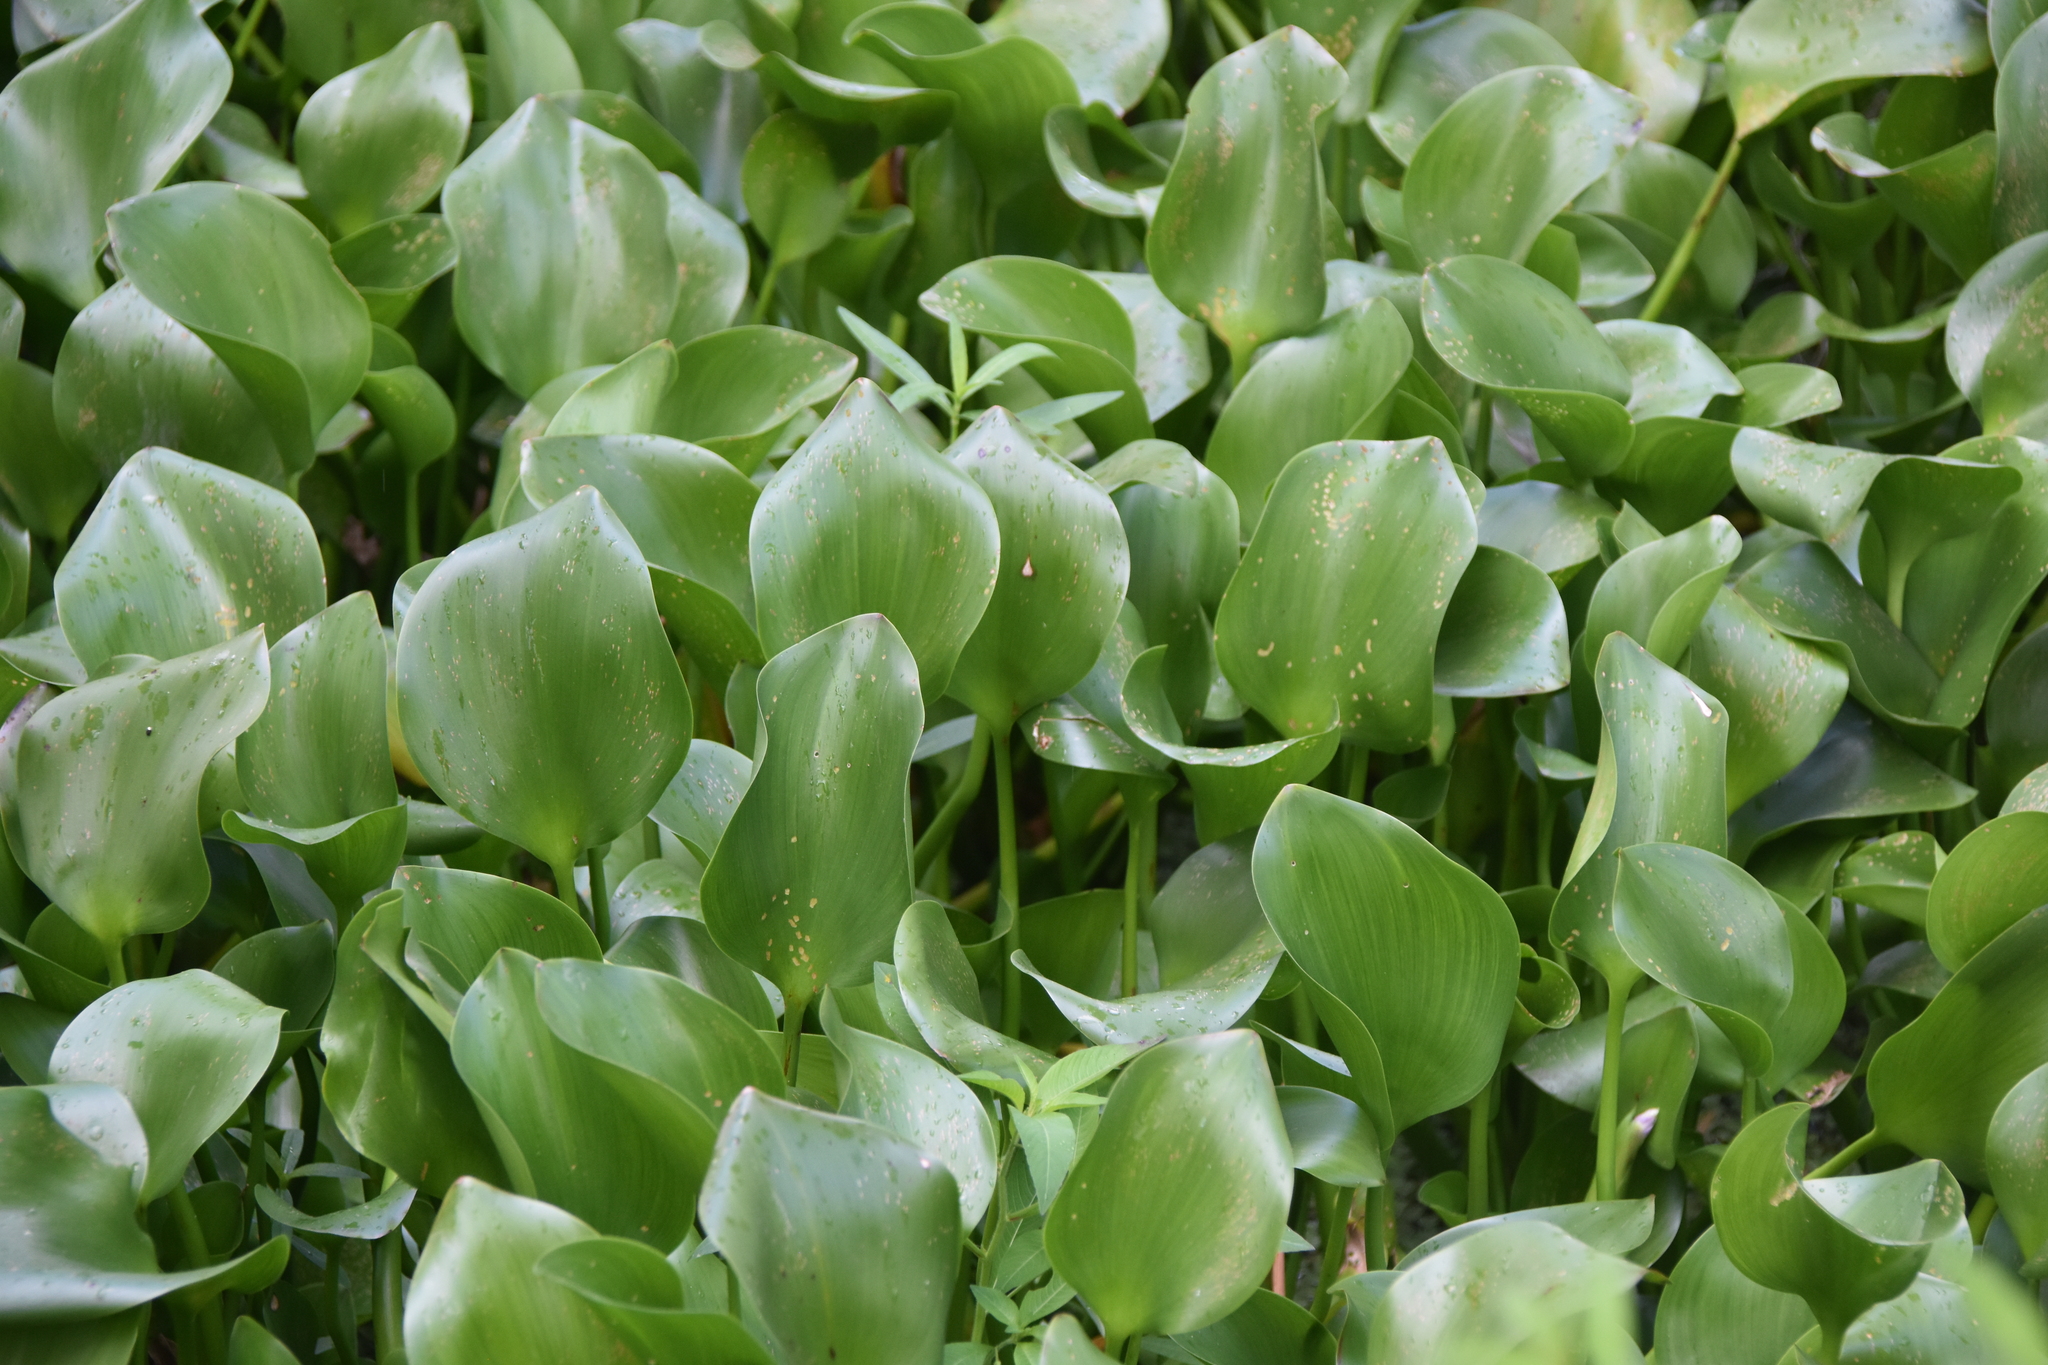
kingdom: Plantae
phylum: Tracheophyta
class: Liliopsida
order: Commelinales
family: Pontederiaceae
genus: Pontederia
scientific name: Pontederia crassipes
